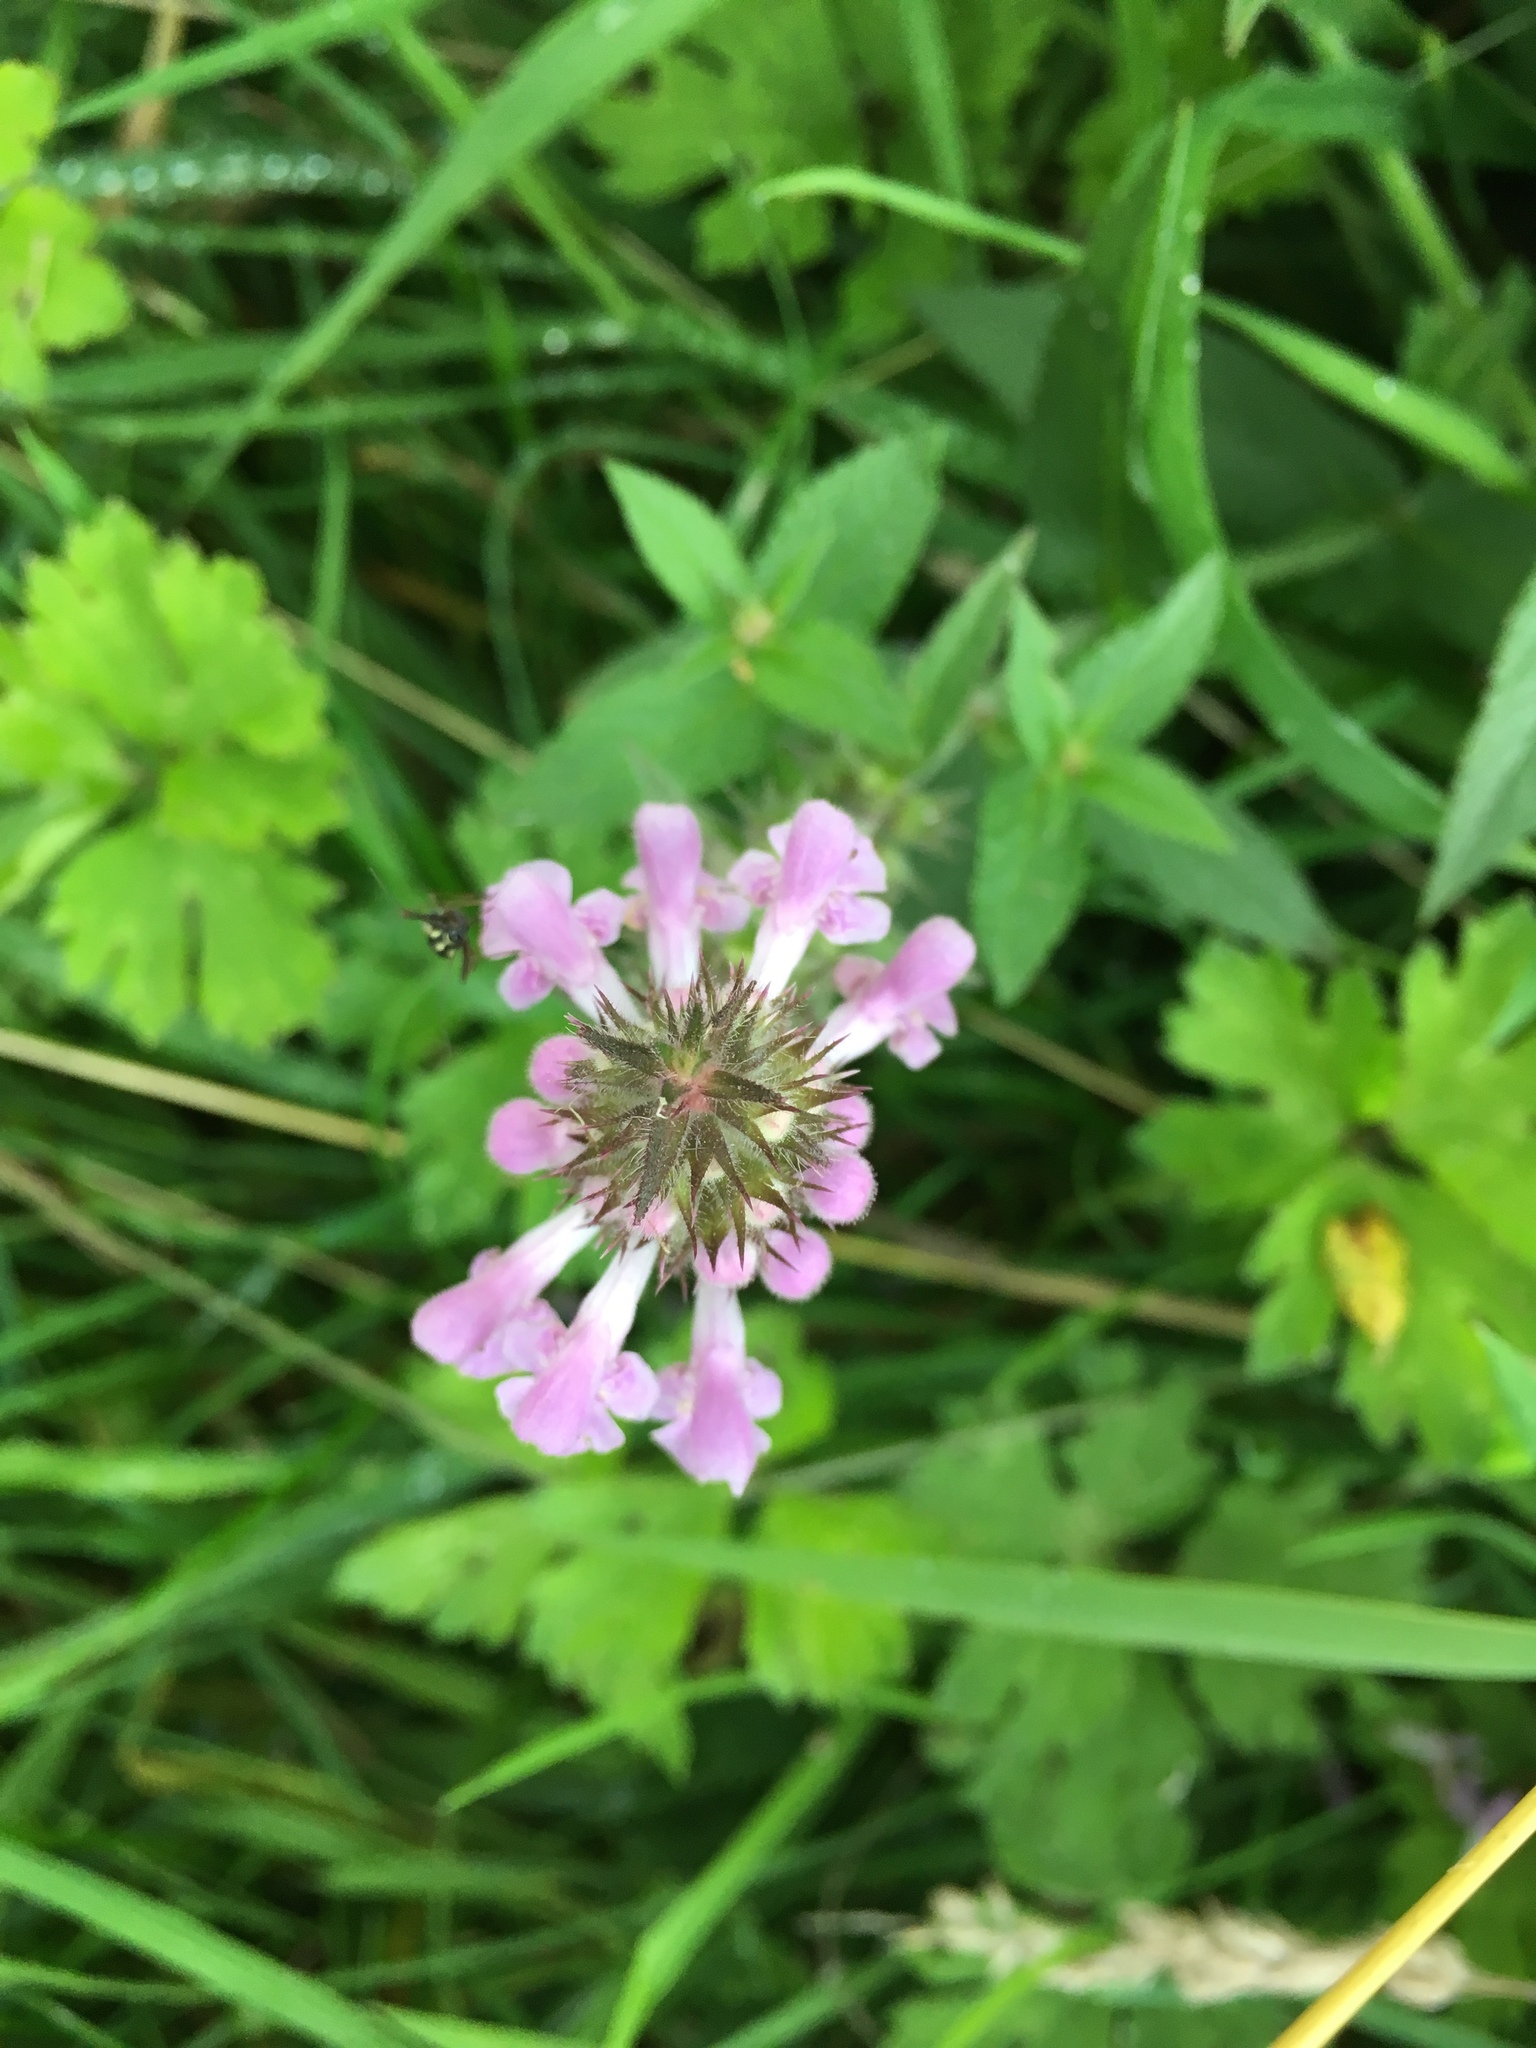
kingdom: Plantae
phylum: Tracheophyta
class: Magnoliopsida
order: Lamiales
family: Lamiaceae
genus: Stachys
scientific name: Stachys palustris
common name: Marsh woundwort
